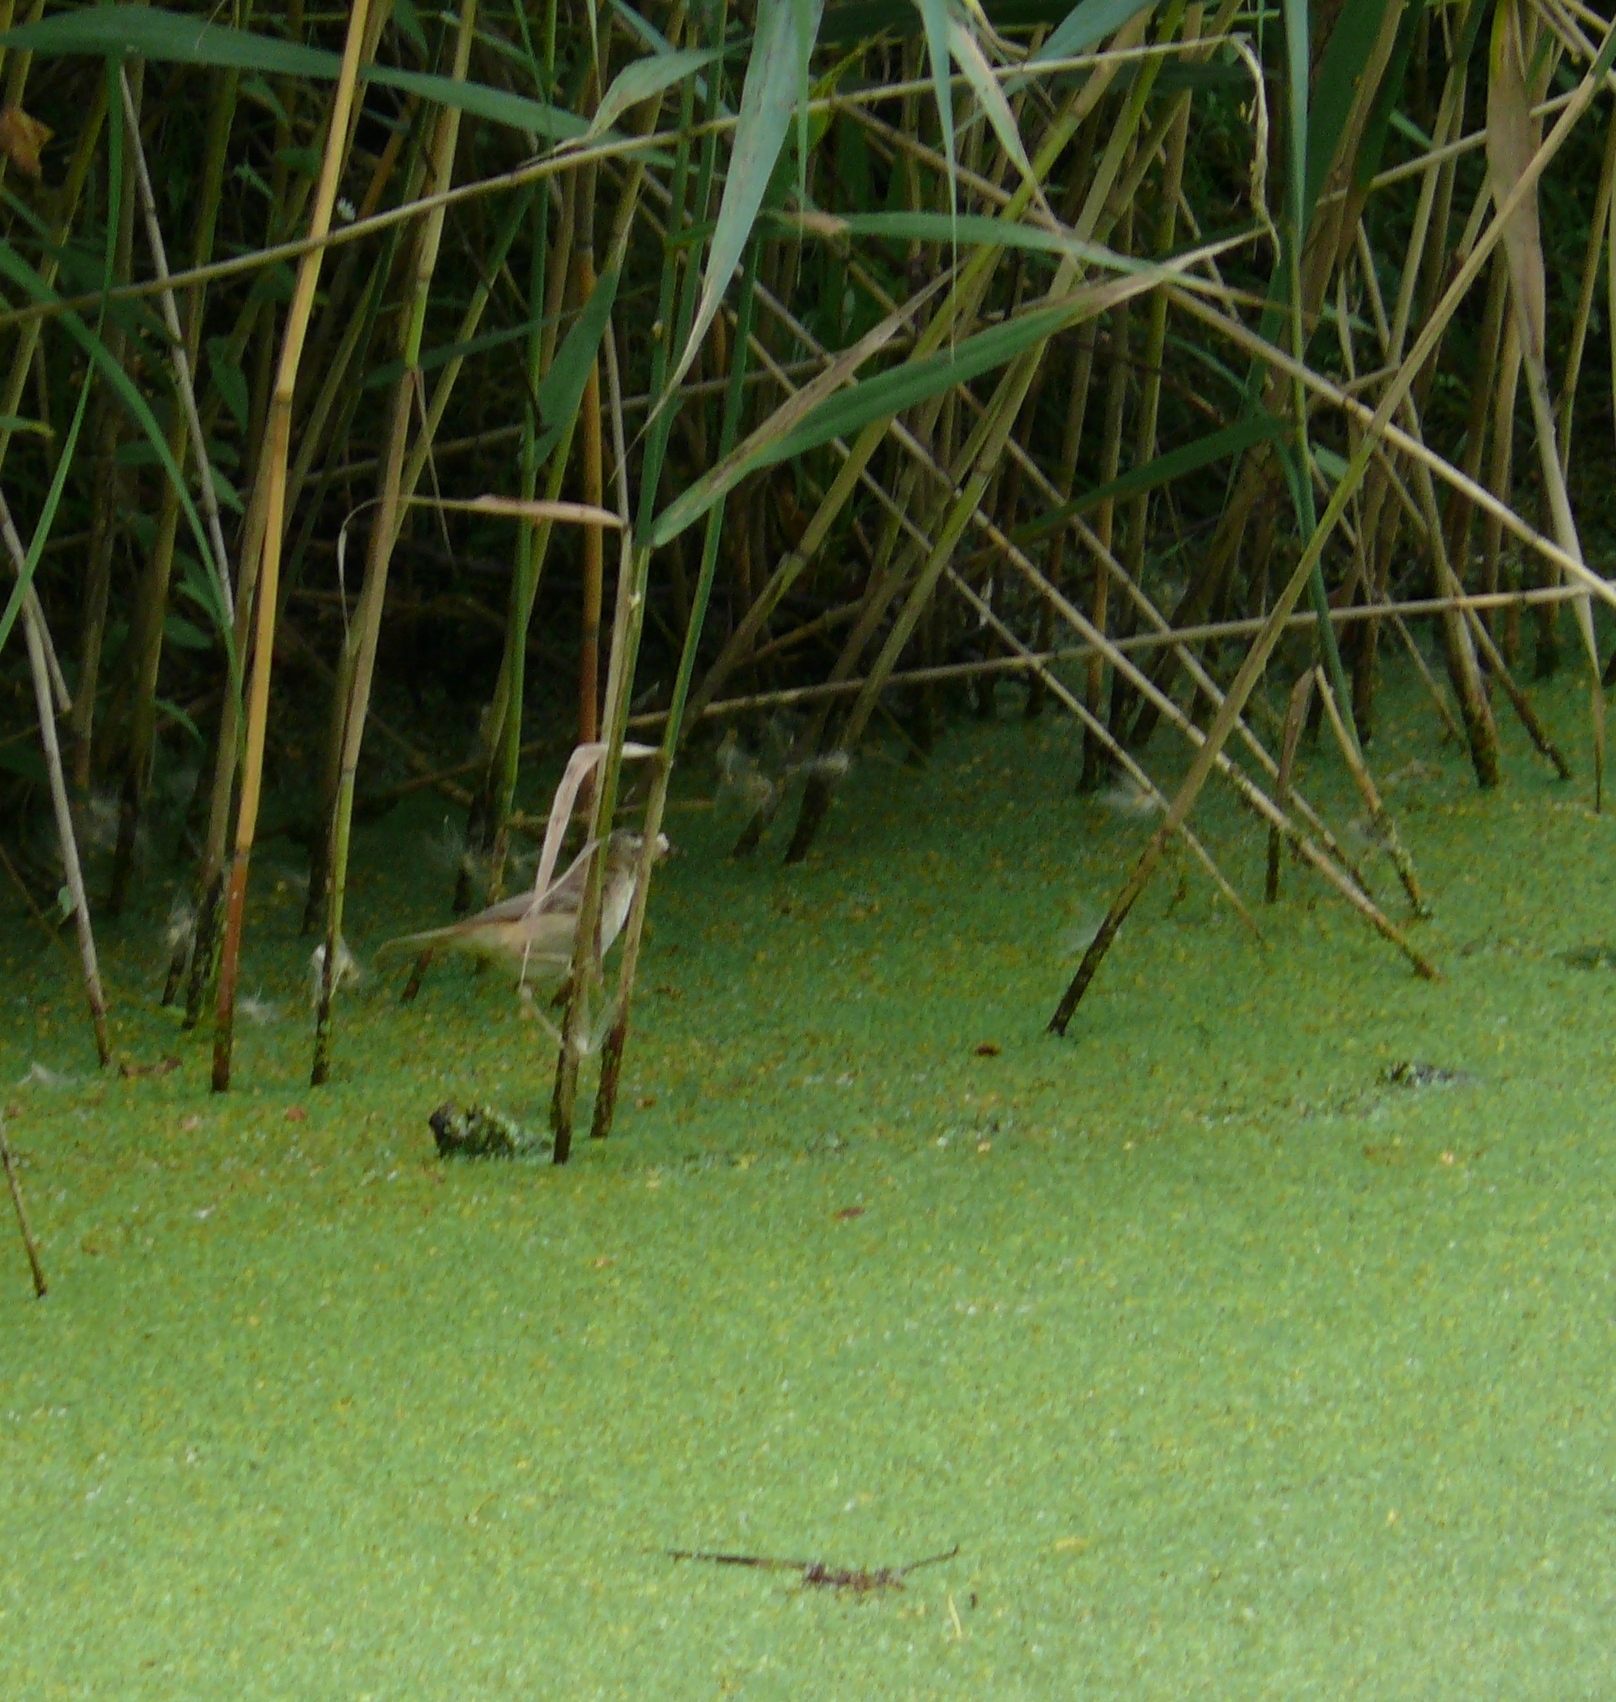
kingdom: Animalia
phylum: Chordata
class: Aves
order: Passeriformes
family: Acrocephalidae
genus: Acrocephalus
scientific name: Acrocephalus schoenobaenus
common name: Sedge warbler
